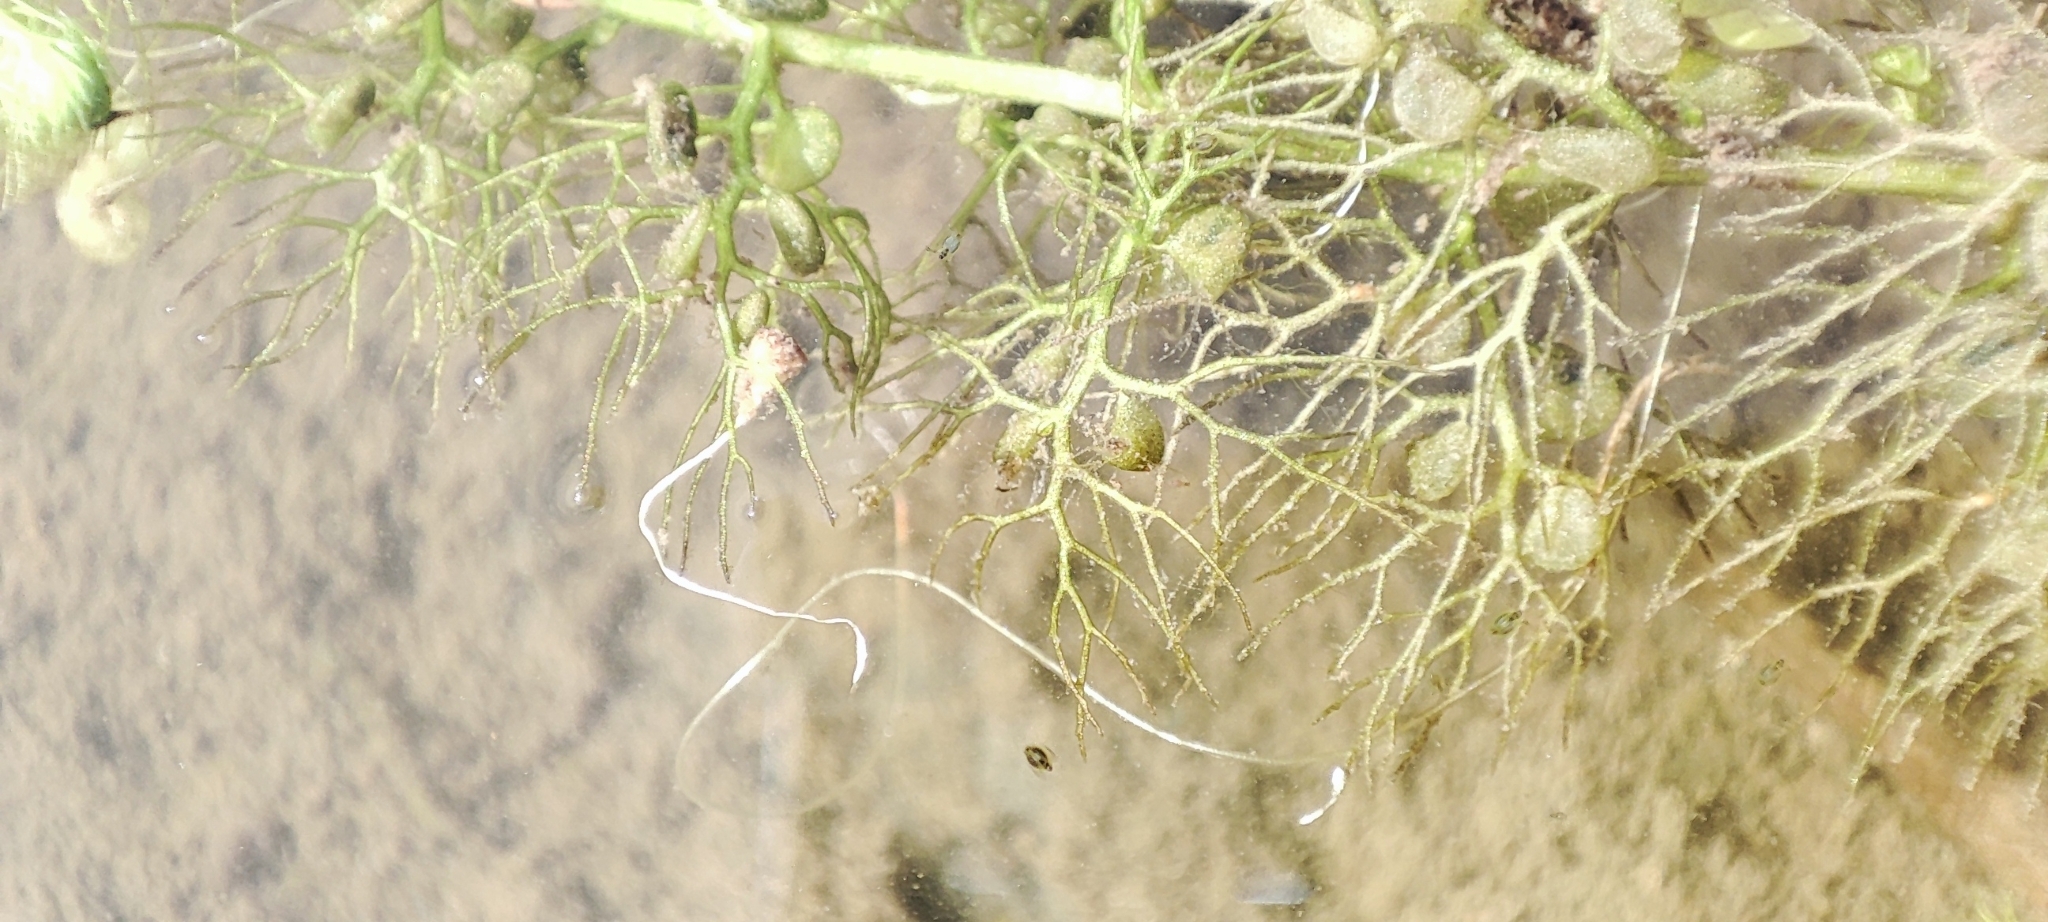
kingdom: Plantae
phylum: Tracheophyta
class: Magnoliopsida
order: Lamiales
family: Lentibulariaceae
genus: Utricularia
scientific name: Utricularia vulgaris
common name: Greater bladderwort
